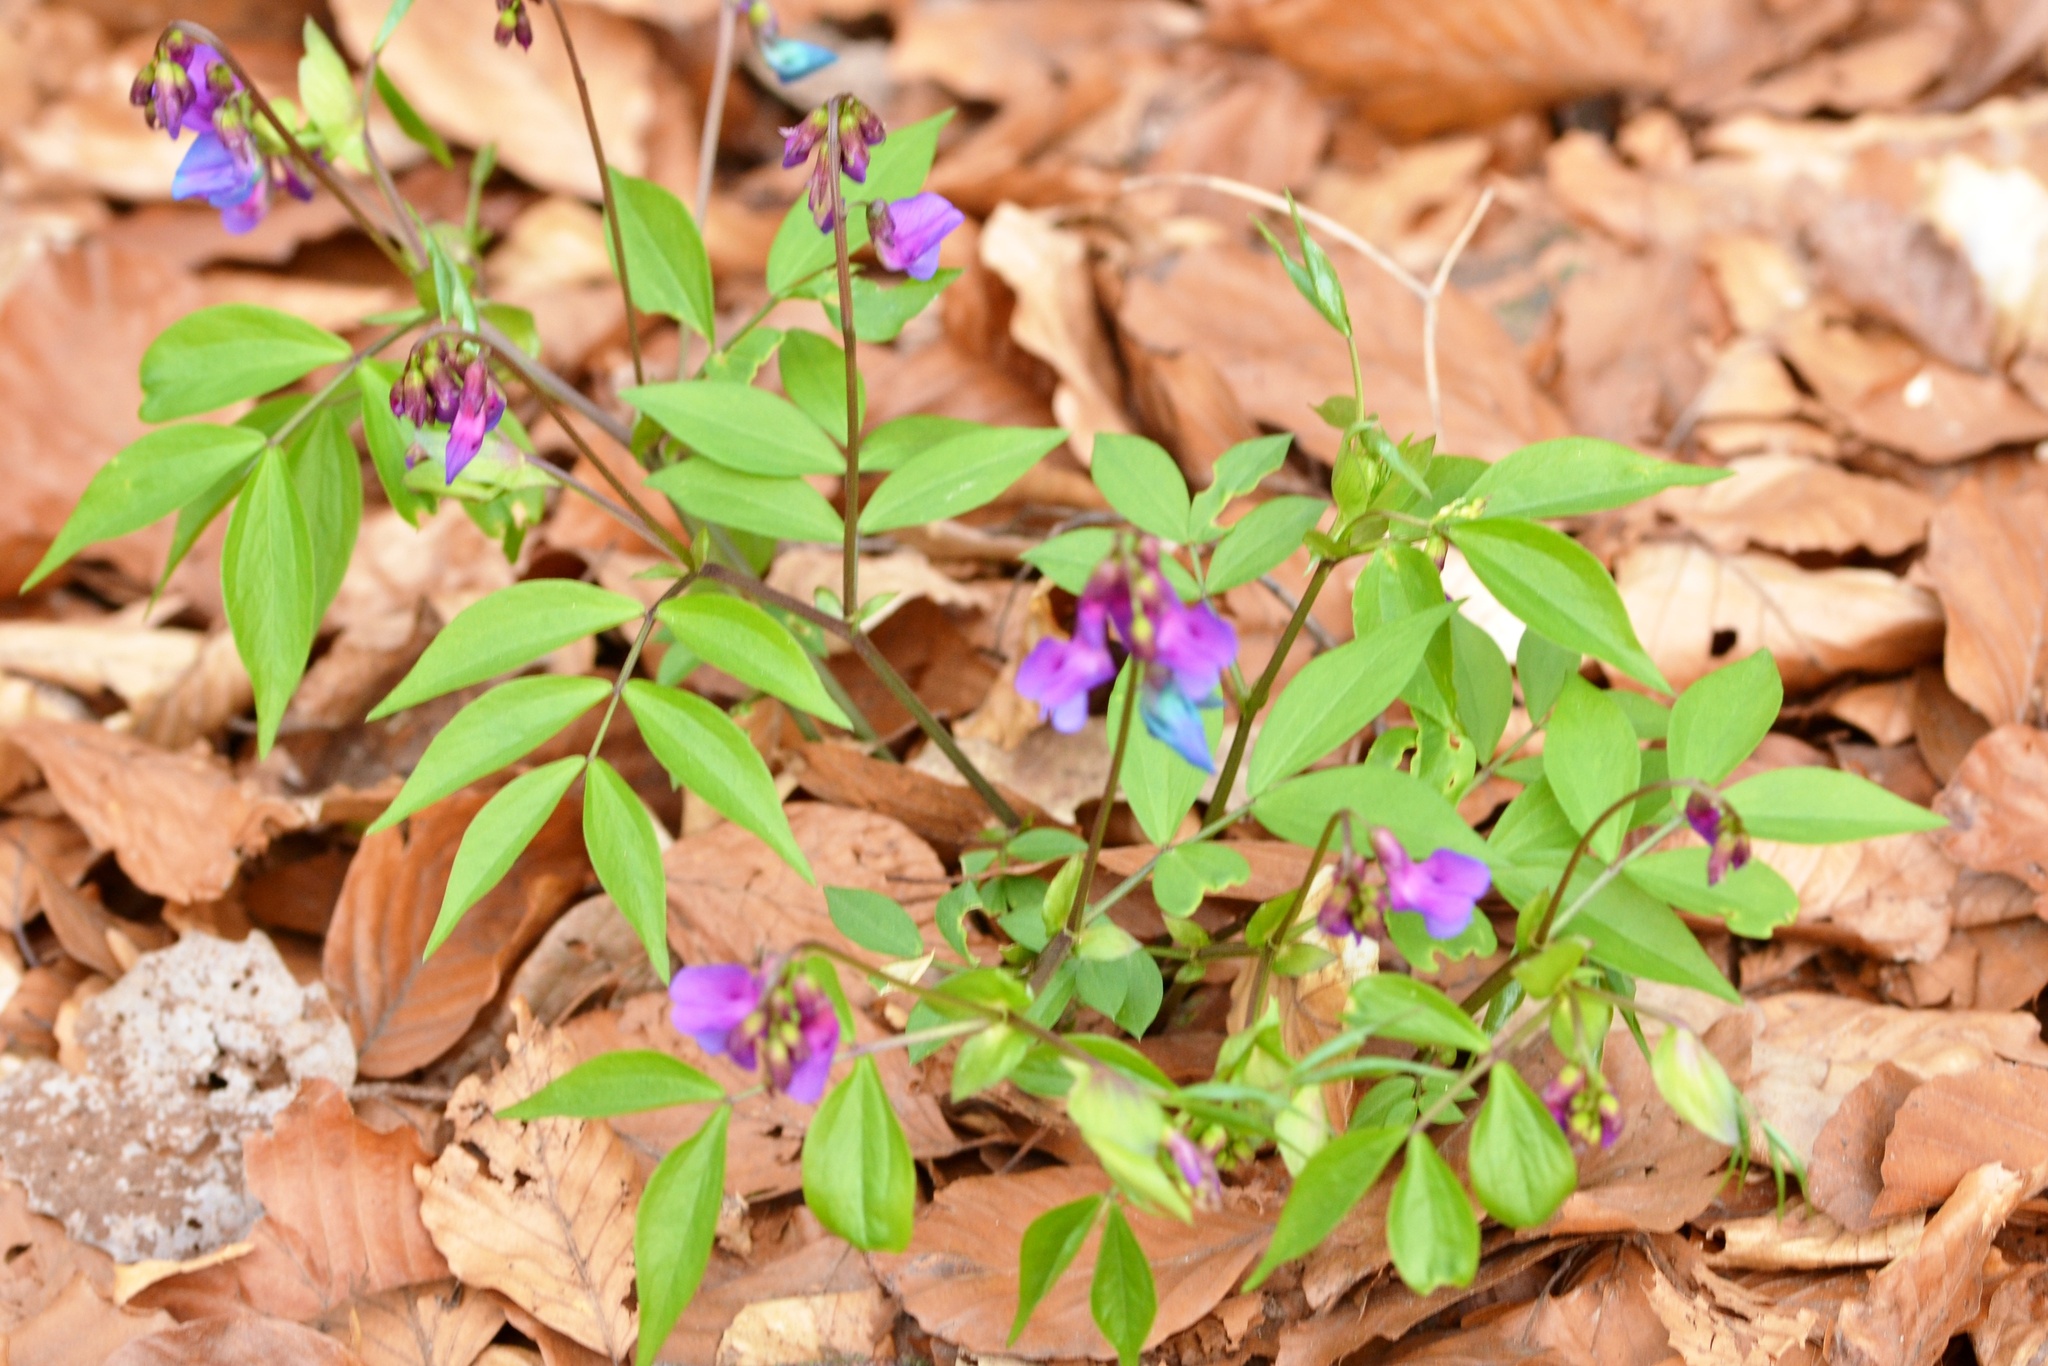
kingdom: Plantae
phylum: Tracheophyta
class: Magnoliopsida
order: Fabales
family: Fabaceae
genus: Lathyrus
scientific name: Lathyrus vernus
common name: Spring pea
